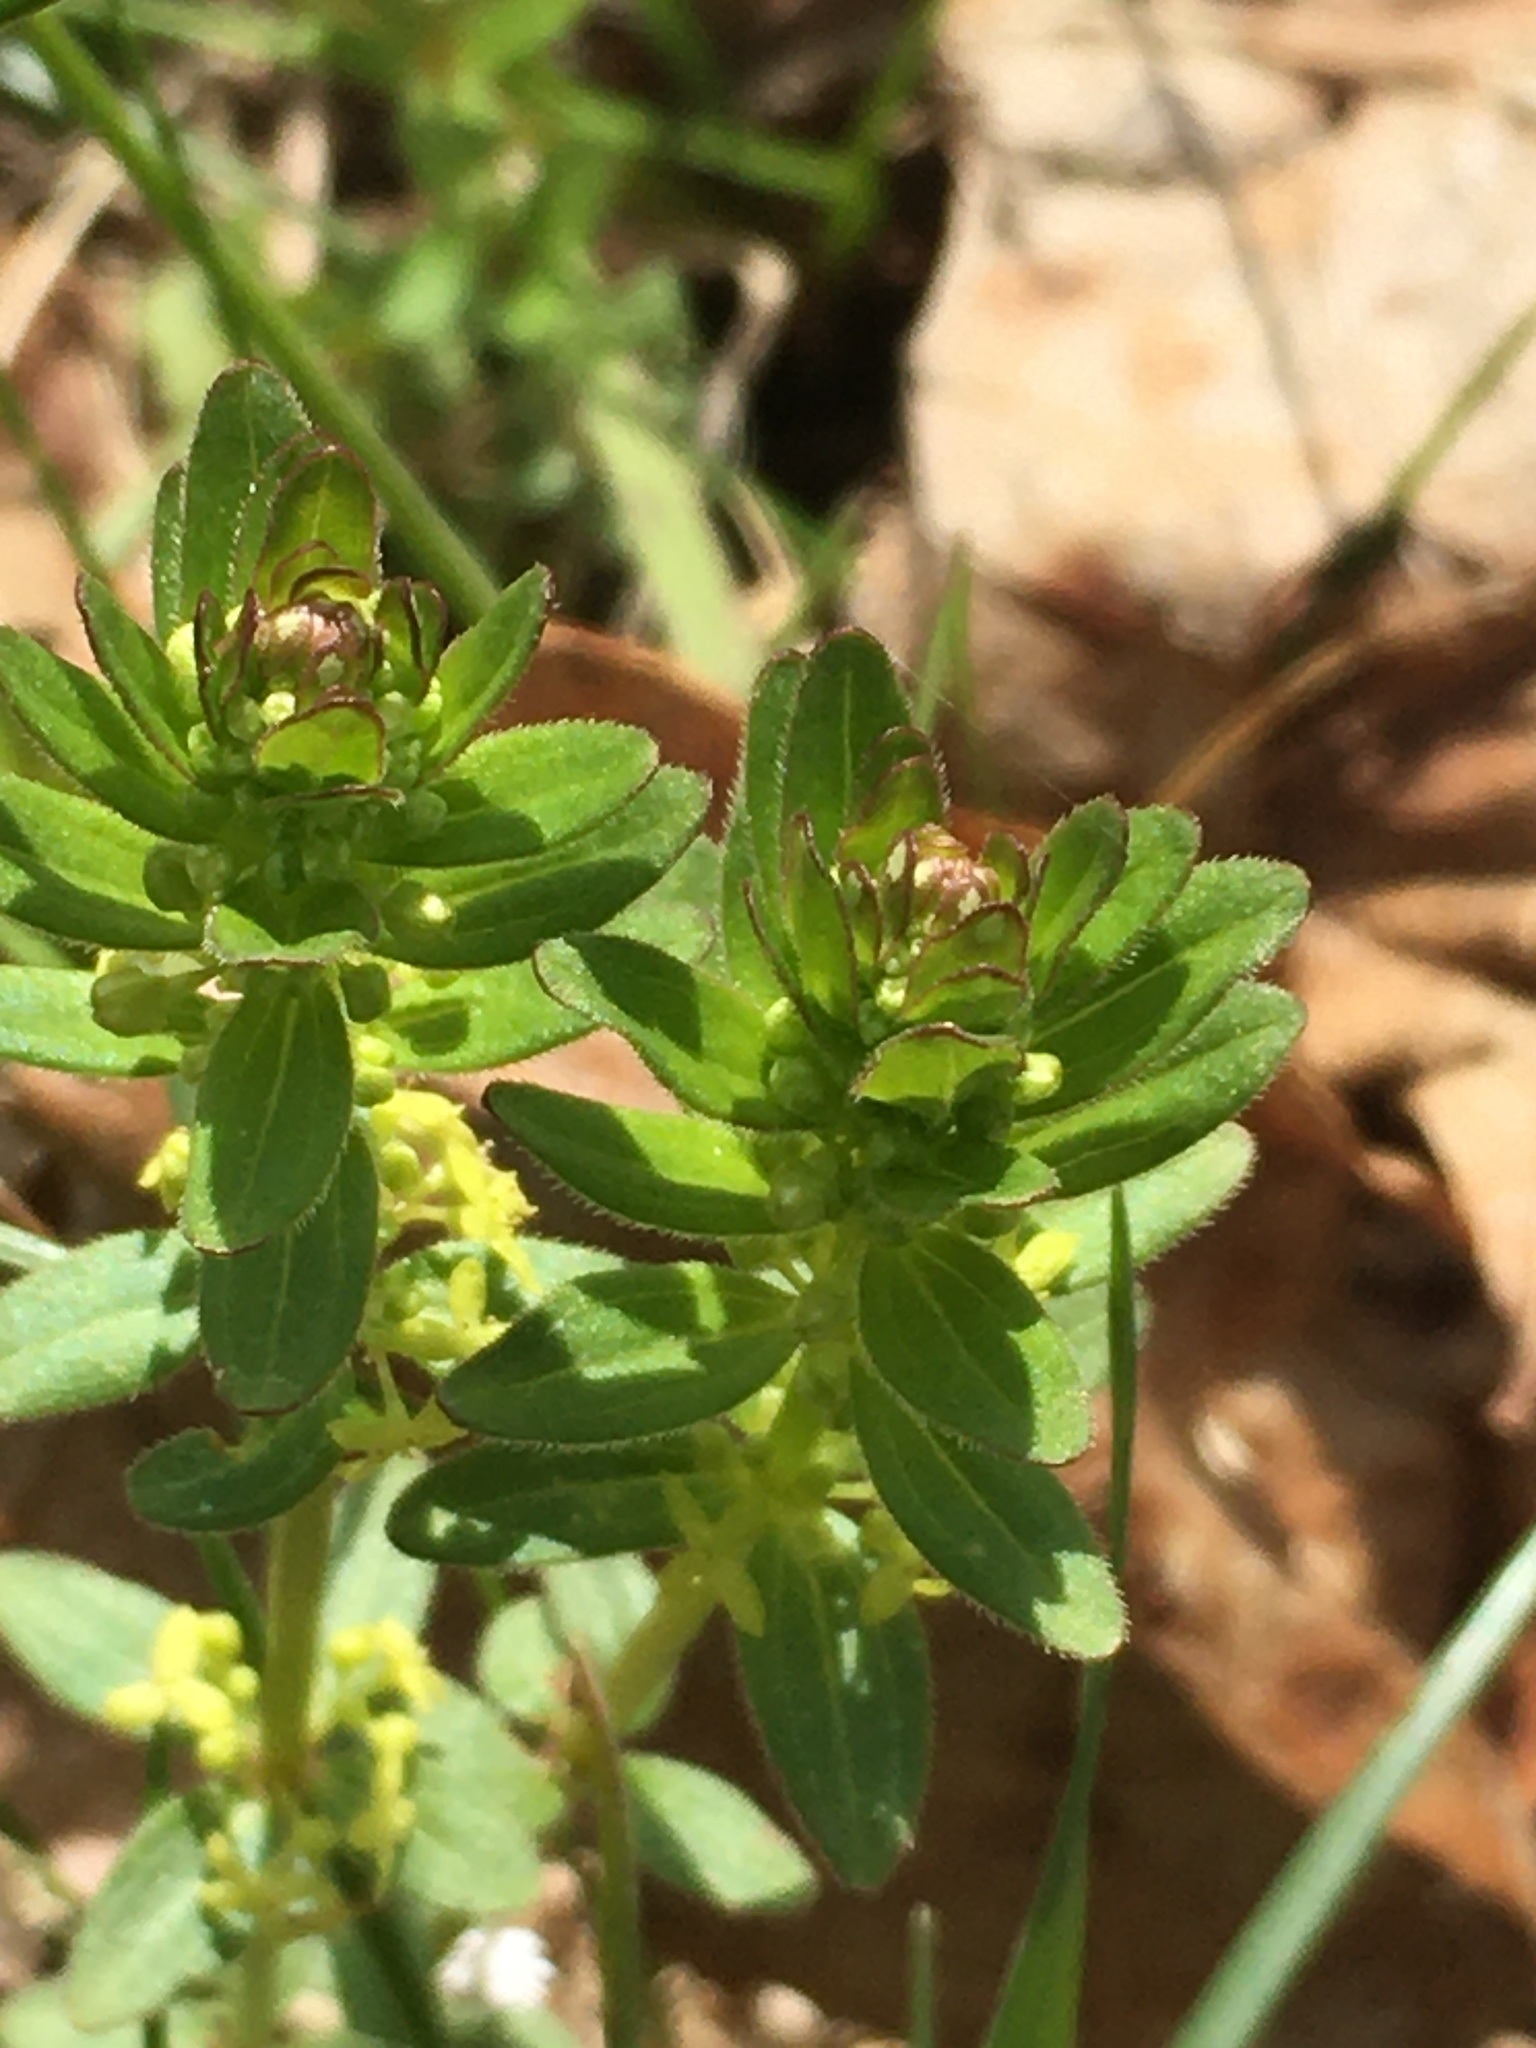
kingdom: Plantae
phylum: Tracheophyta
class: Magnoliopsida
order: Gentianales
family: Rubiaceae
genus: Cruciata
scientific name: Cruciata glabra
